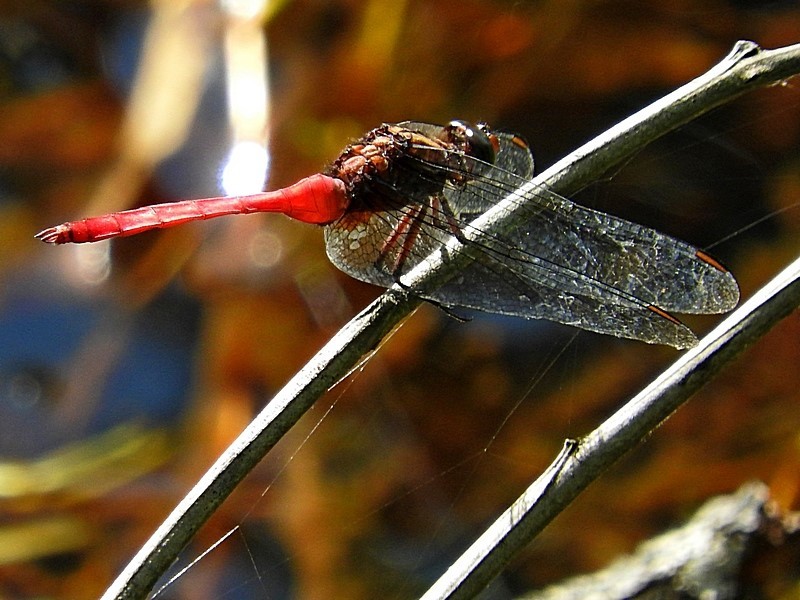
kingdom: Animalia
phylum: Arthropoda
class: Insecta
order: Odonata
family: Libellulidae
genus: Orthetrum
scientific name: Orthetrum villosovittatum
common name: Firery skimmer
